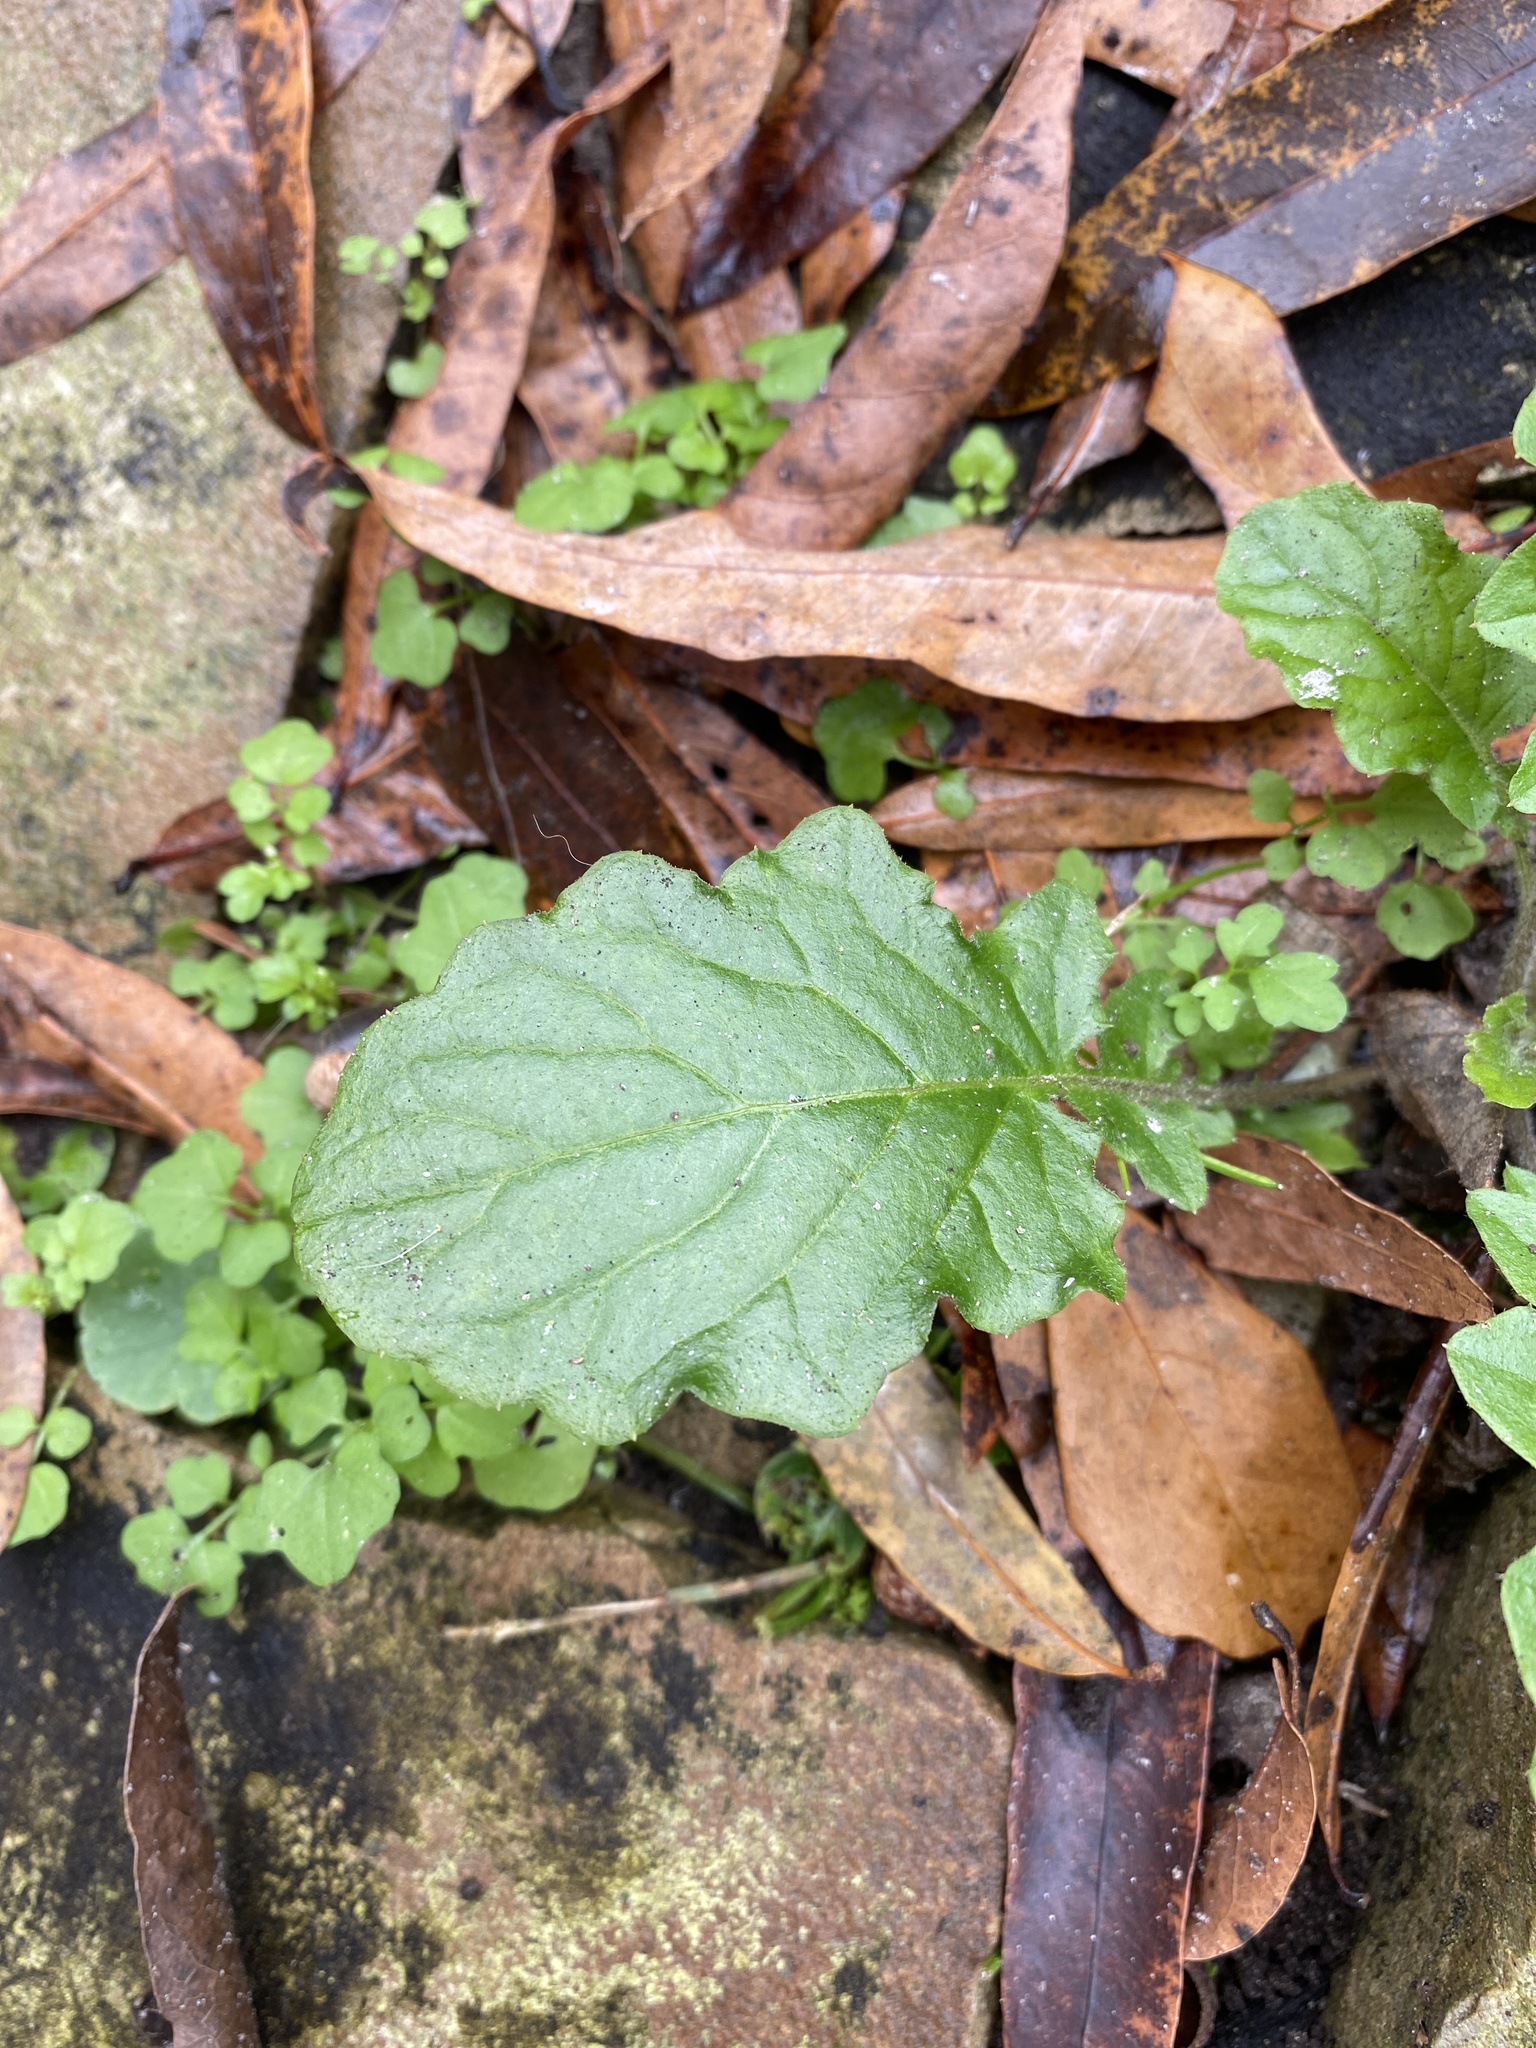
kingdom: Plantae
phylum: Tracheophyta
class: Magnoliopsida
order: Asterales
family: Asteraceae
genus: Youngia
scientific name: Youngia japonica
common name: Oriental false hawksbeard
